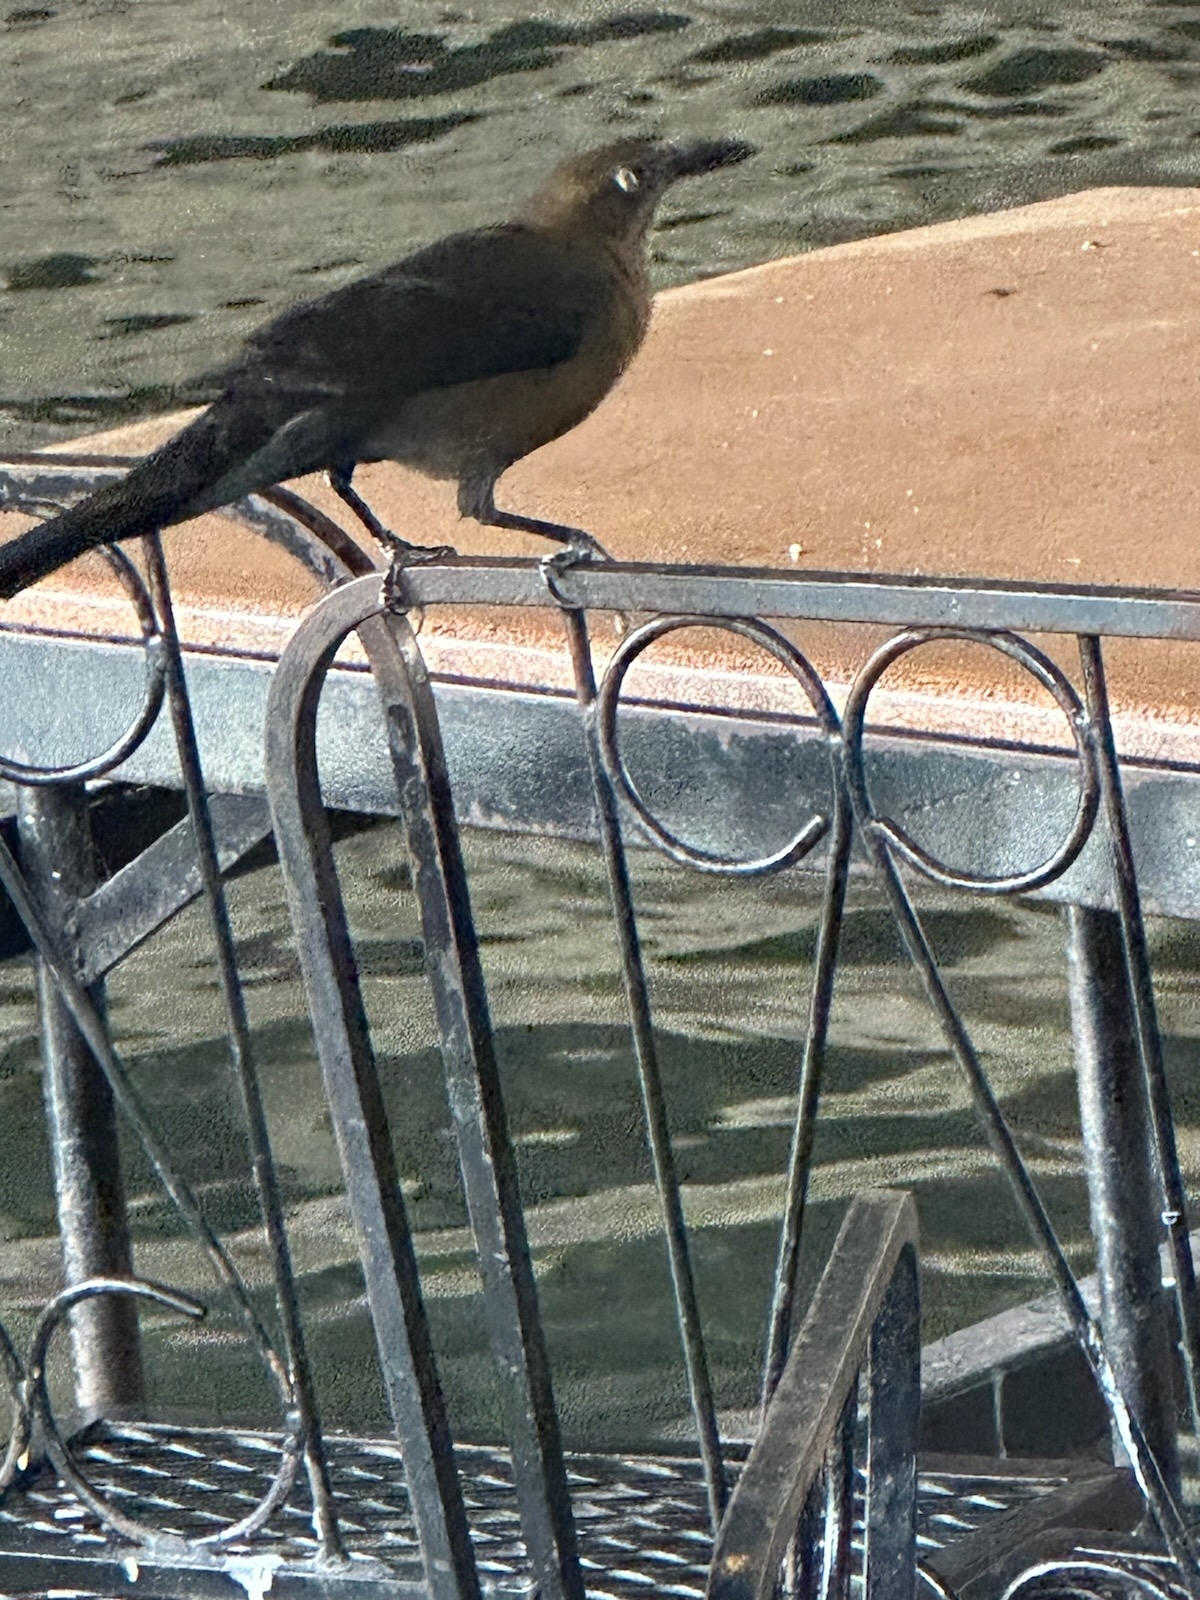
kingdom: Animalia
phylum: Chordata
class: Aves
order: Passeriformes
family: Icteridae
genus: Quiscalus
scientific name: Quiscalus mexicanus
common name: Great-tailed grackle
